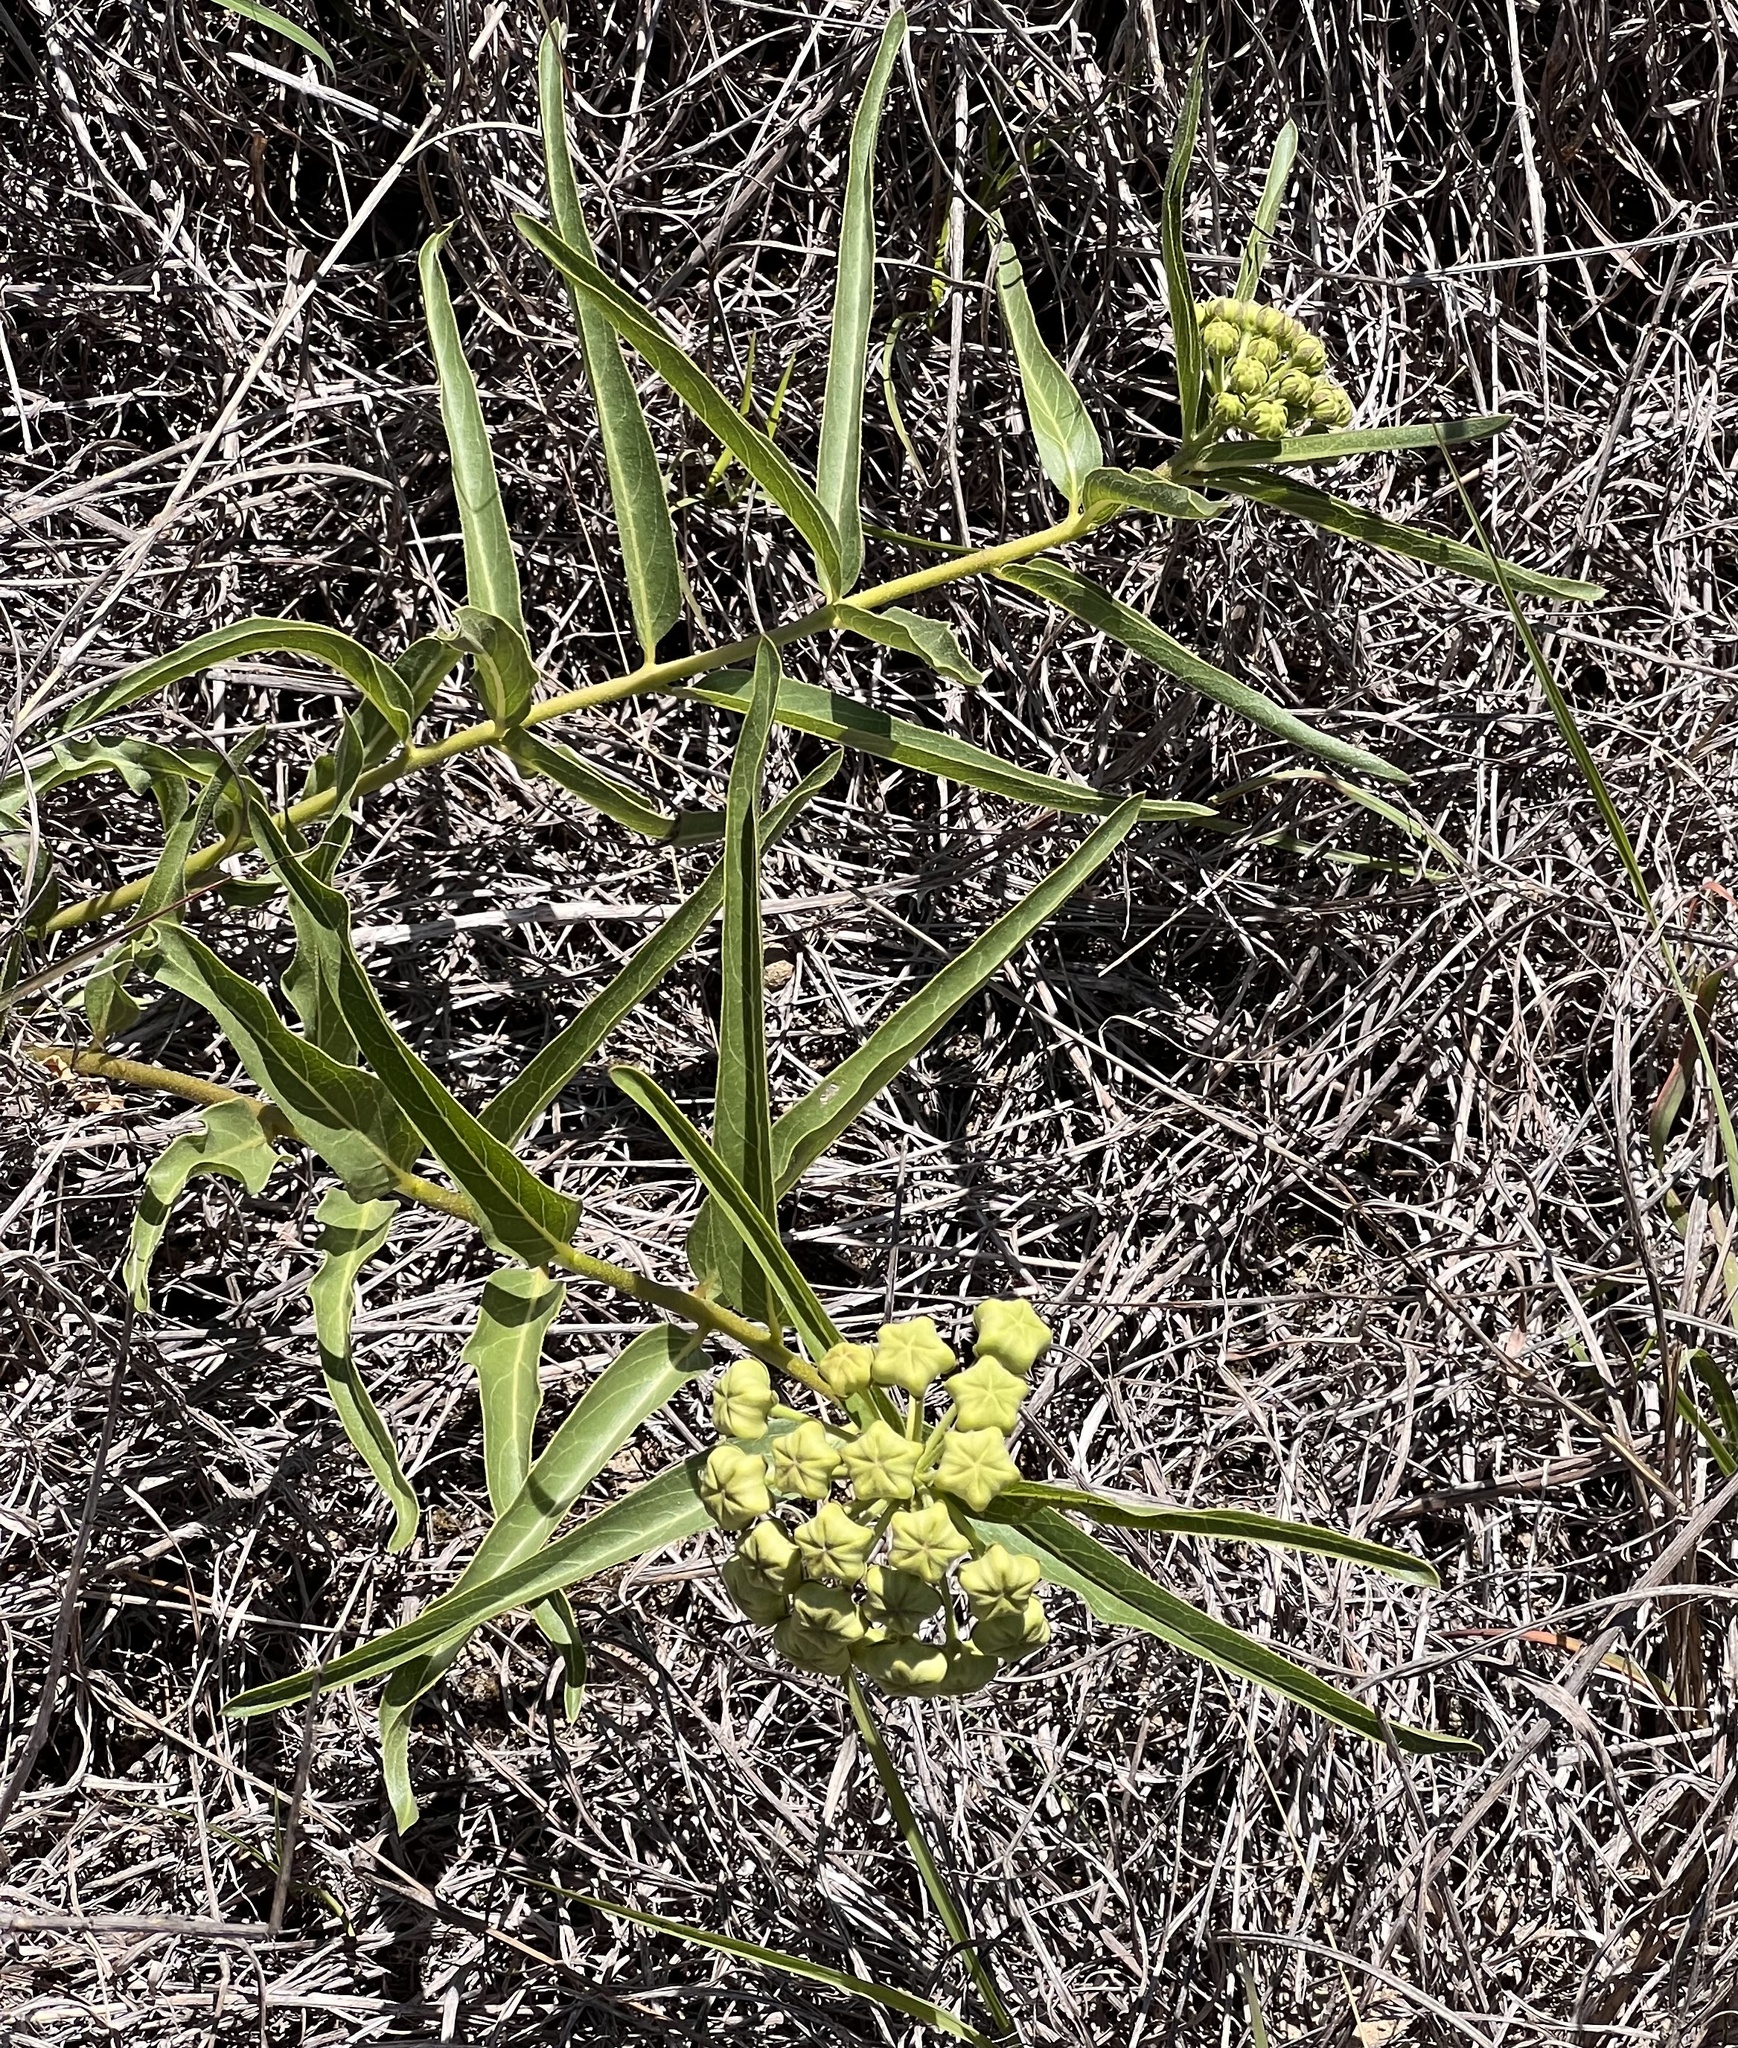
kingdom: Plantae
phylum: Tracheophyta
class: Magnoliopsida
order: Gentianales
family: Apocynaceae
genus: Asclepias
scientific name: Asclepias asperula
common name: Antelope horns
